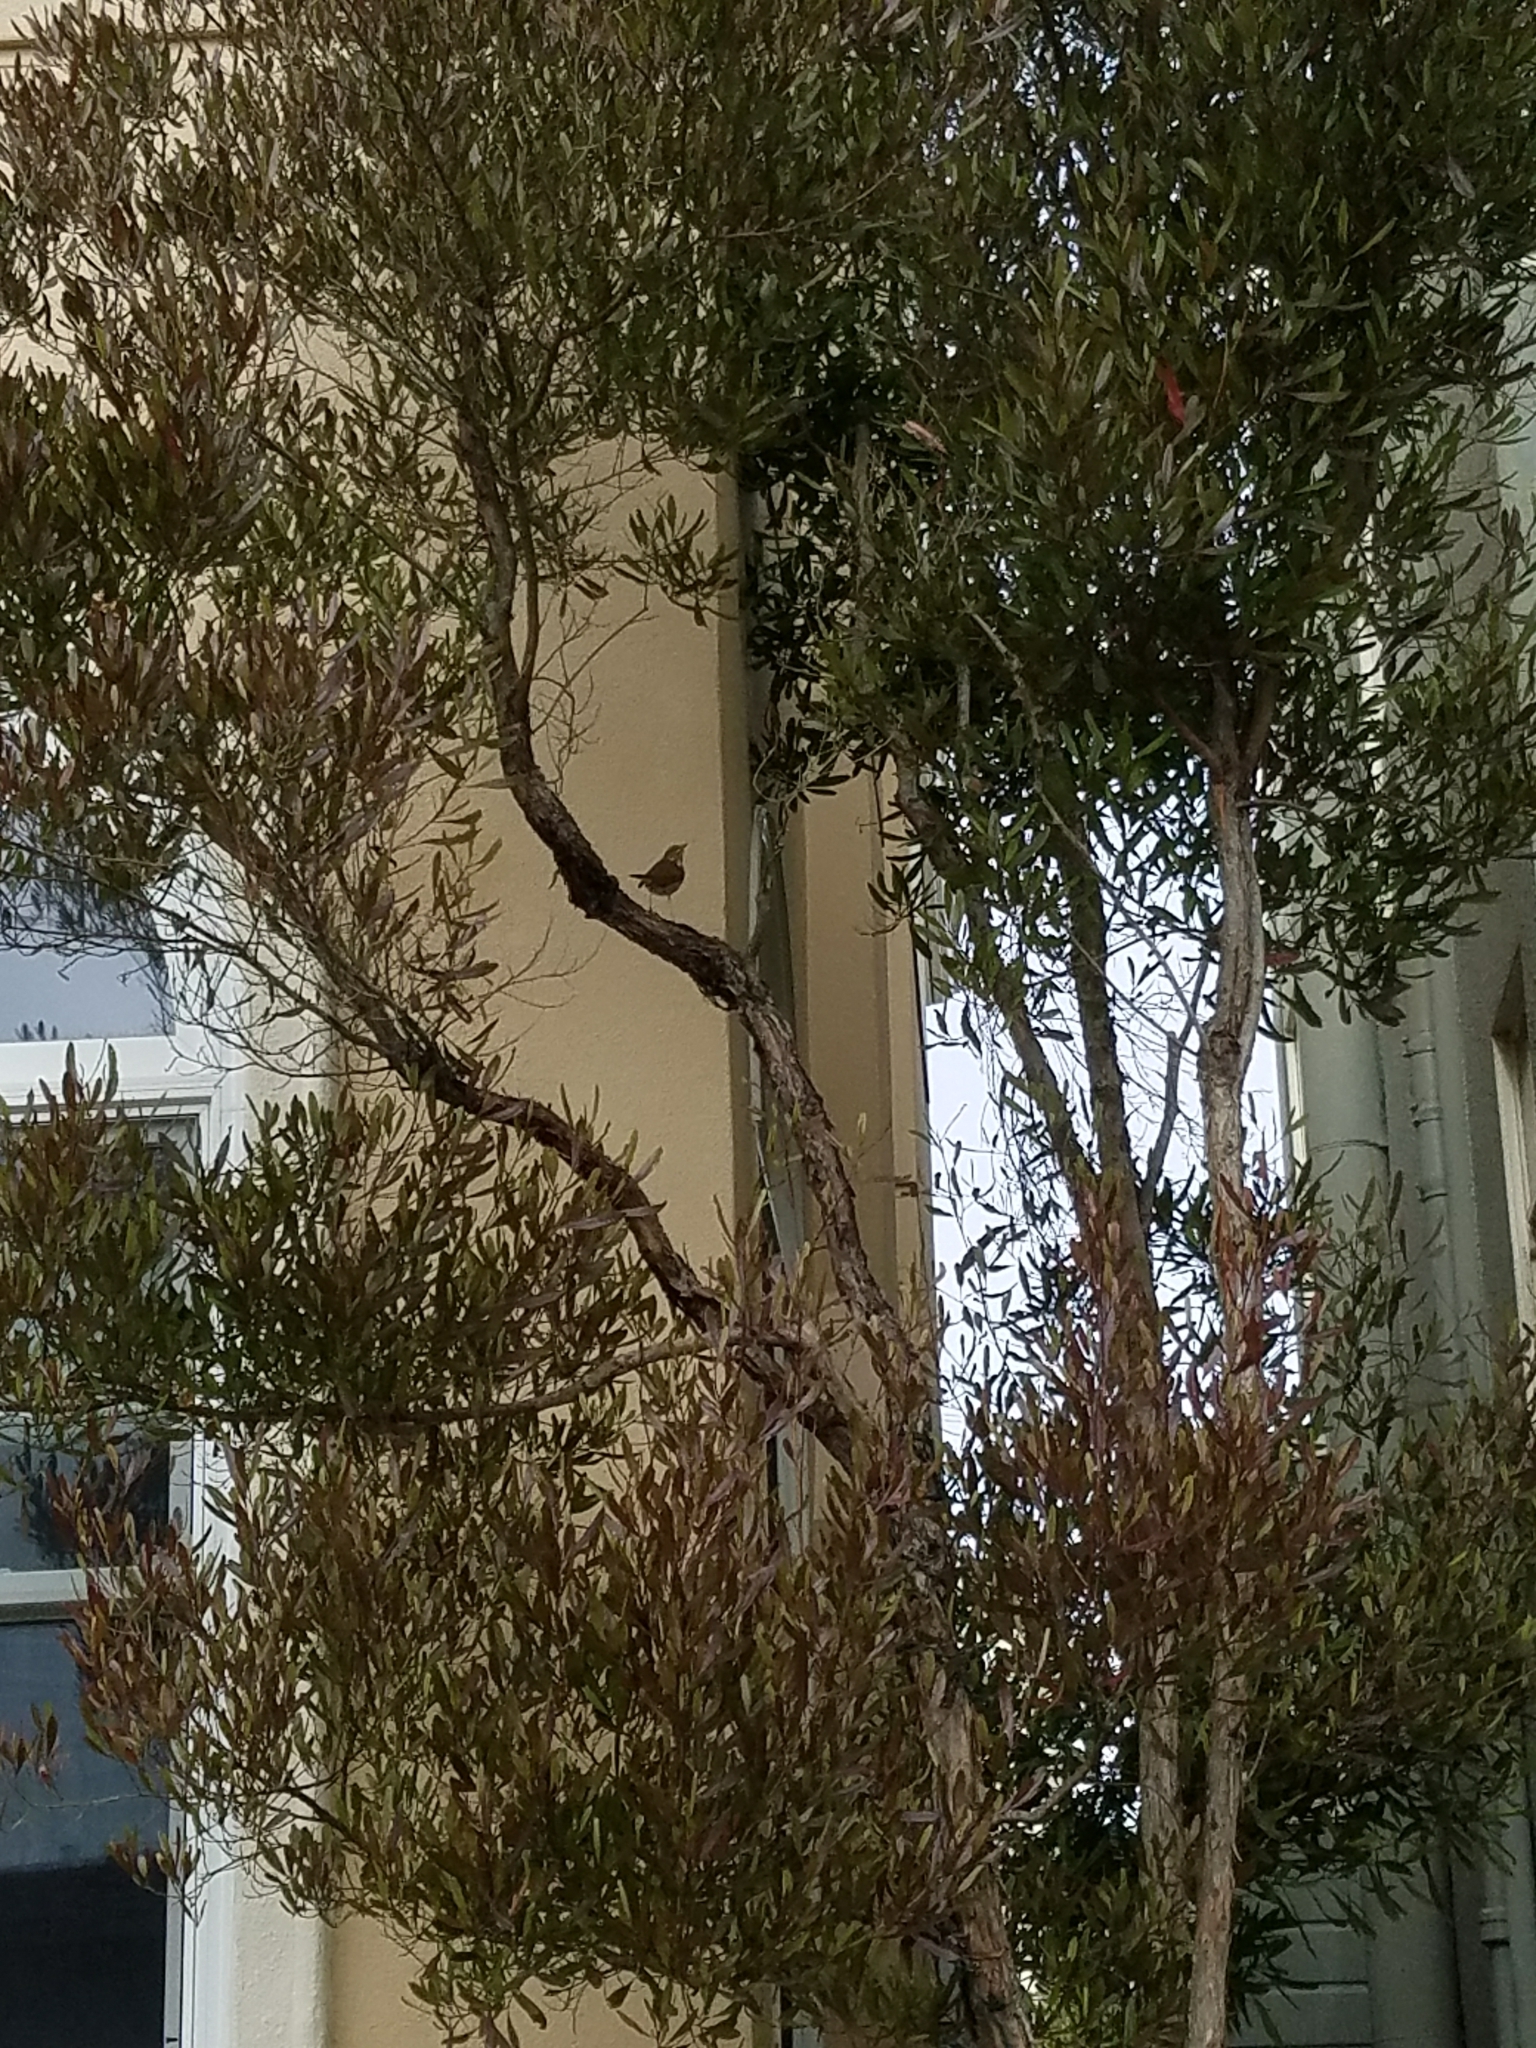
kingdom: Animalia
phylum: Chordata
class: Aves
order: Passeriformes
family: Turdidae
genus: Catharus
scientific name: Catharus guttatus
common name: Hermit thrush
